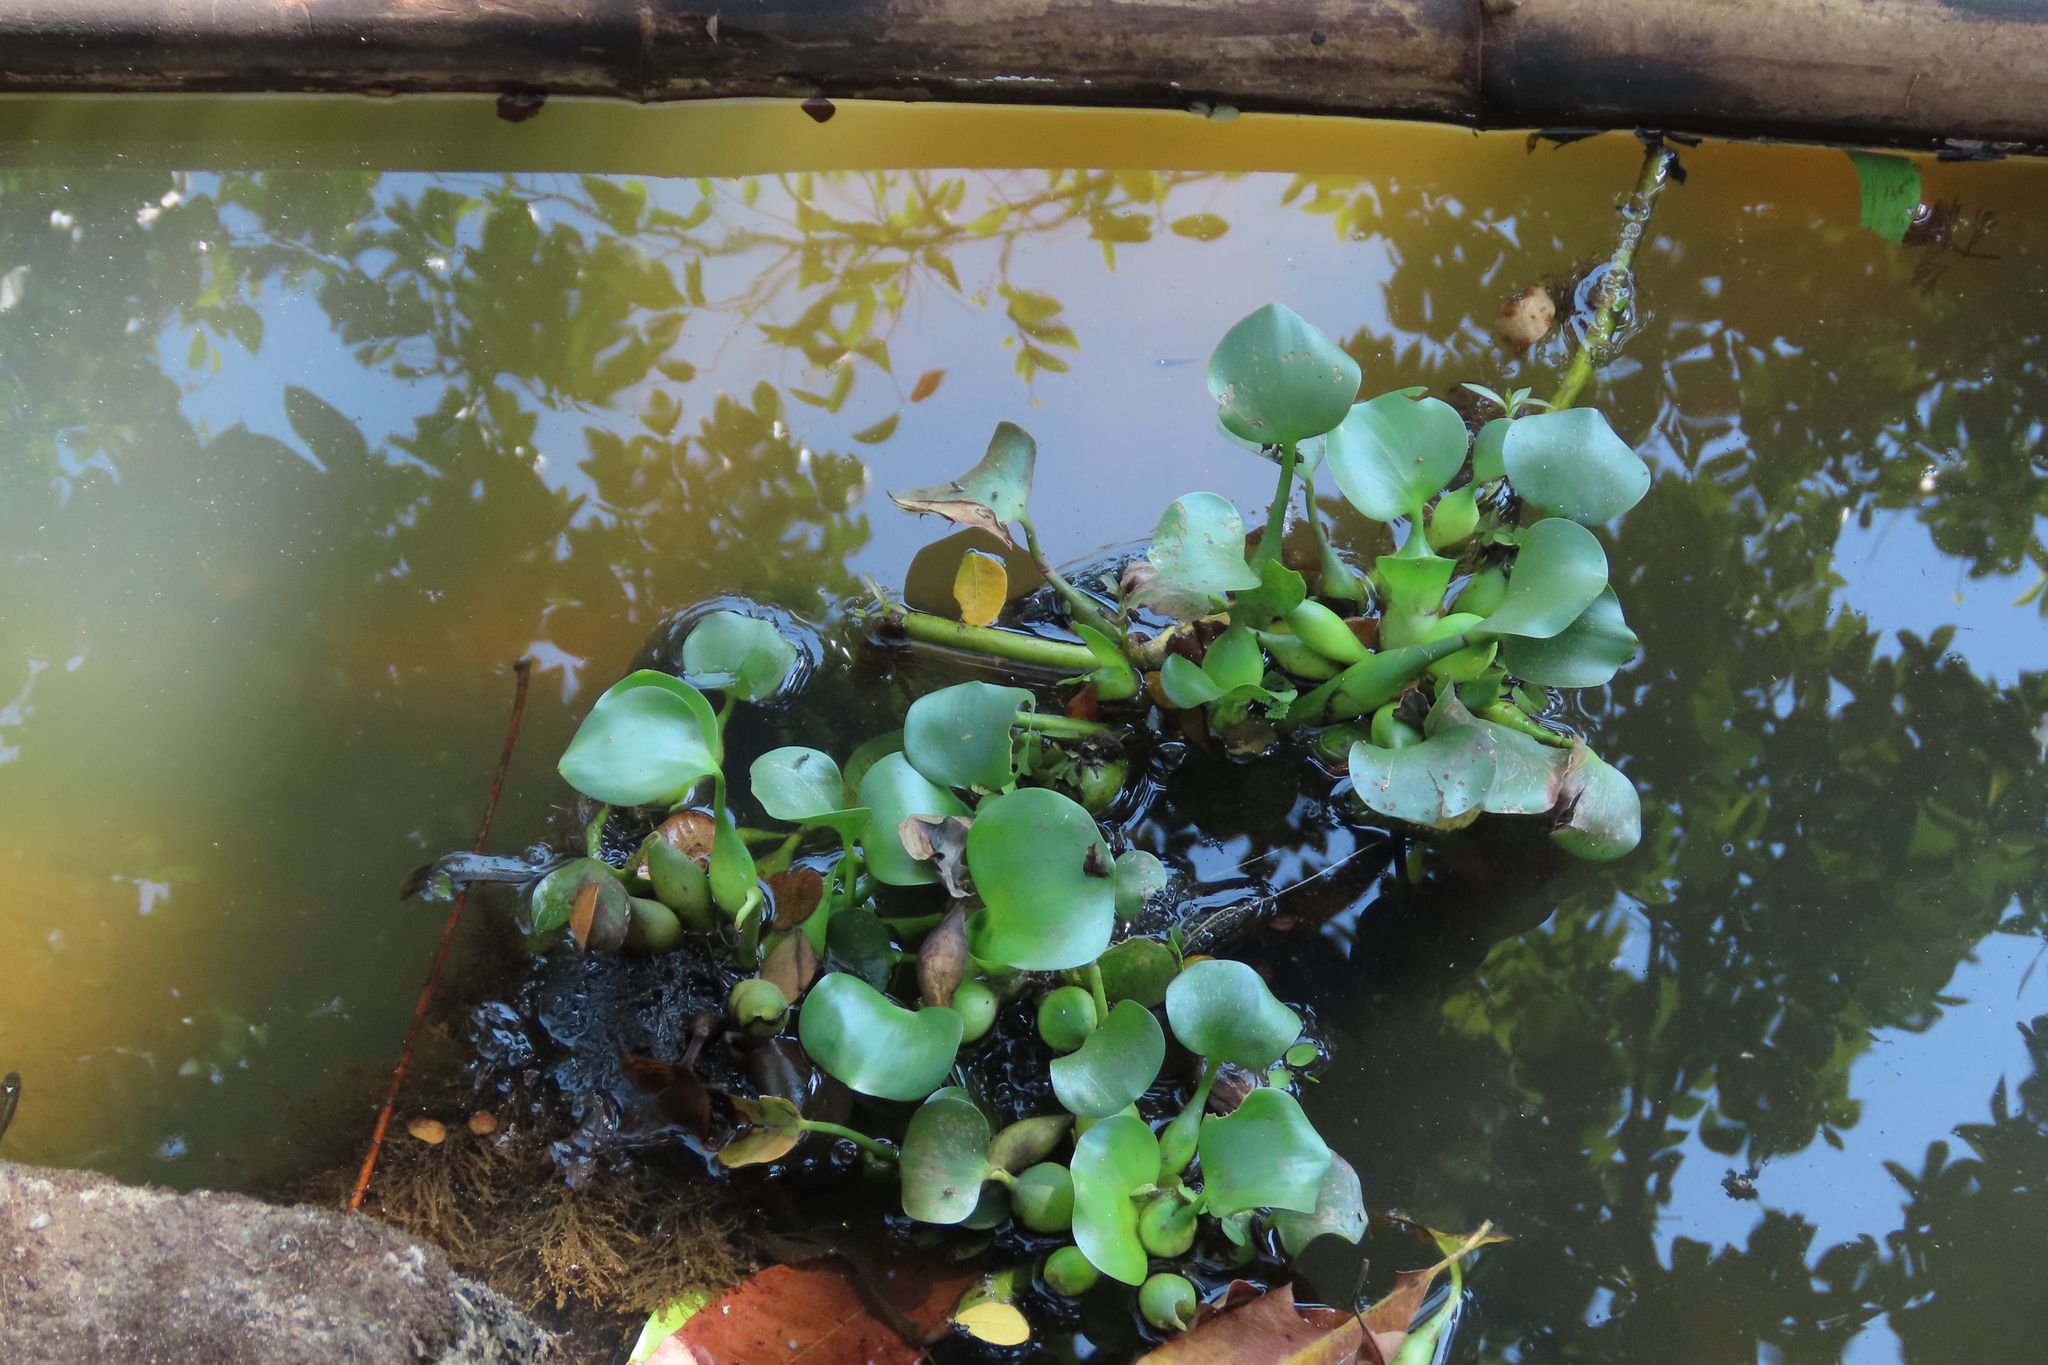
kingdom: Plantae
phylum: Tracheophyta
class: Liliopsida
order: Commelinales
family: Pontederiaceae
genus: Pontederia
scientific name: Pontederia crassipes
